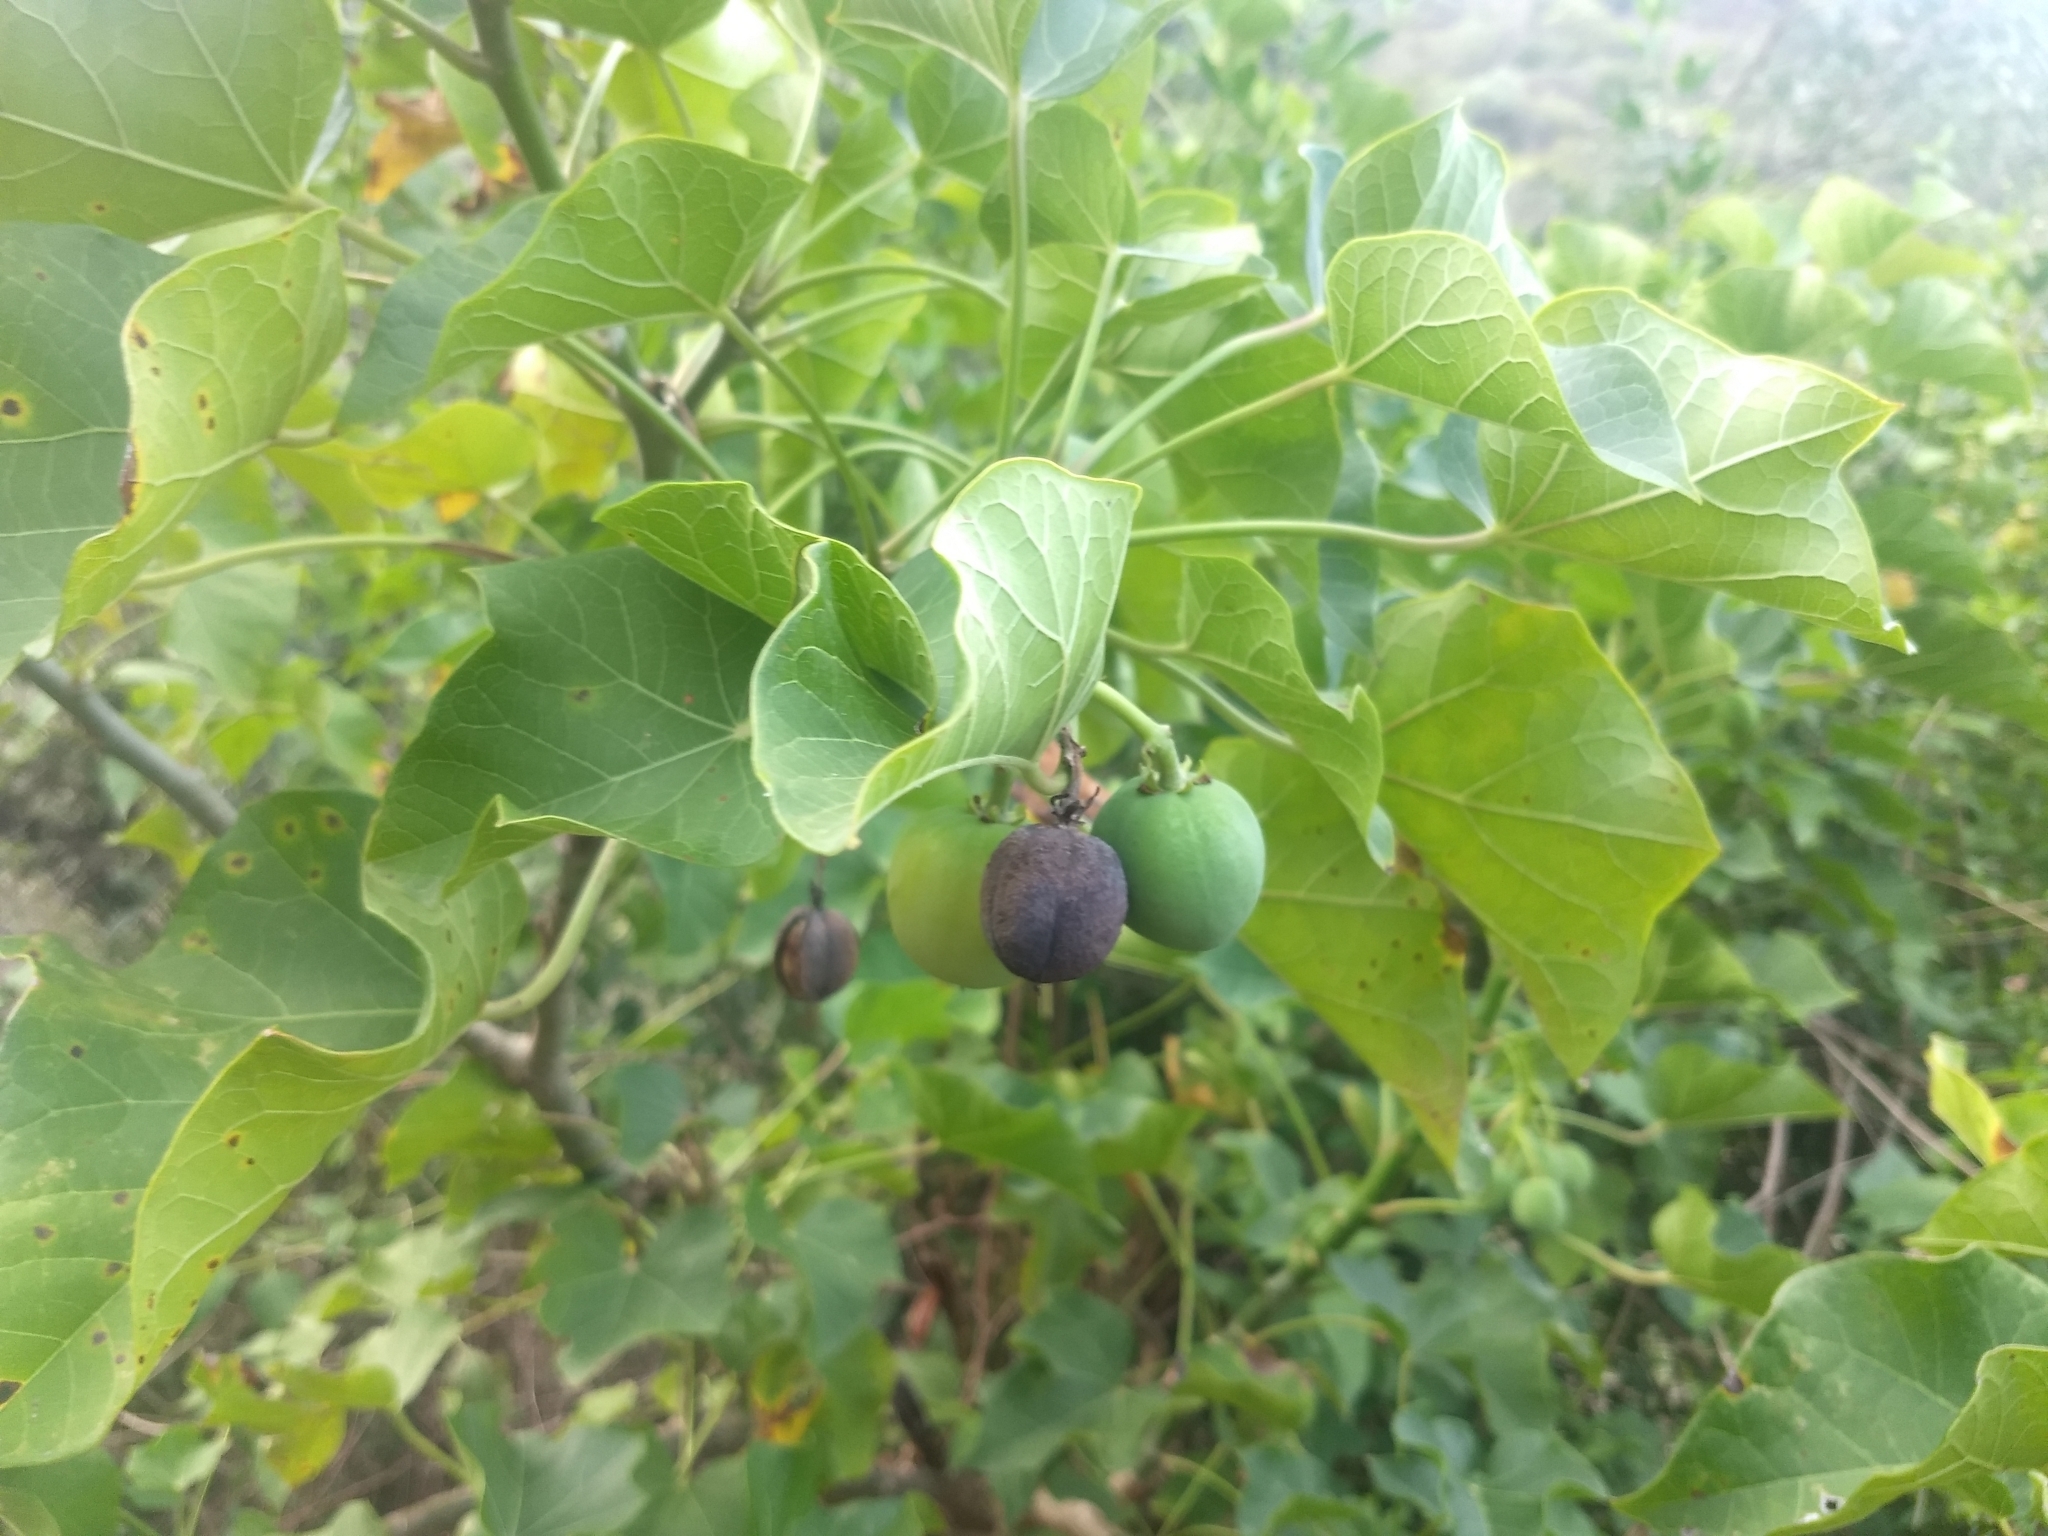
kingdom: Plantae
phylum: Tracheophyta
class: Magnoliopsida
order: Malpighiales
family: Euphorbiaceae
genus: Jatropha
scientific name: Jatropha curcas
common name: Barbados nut
